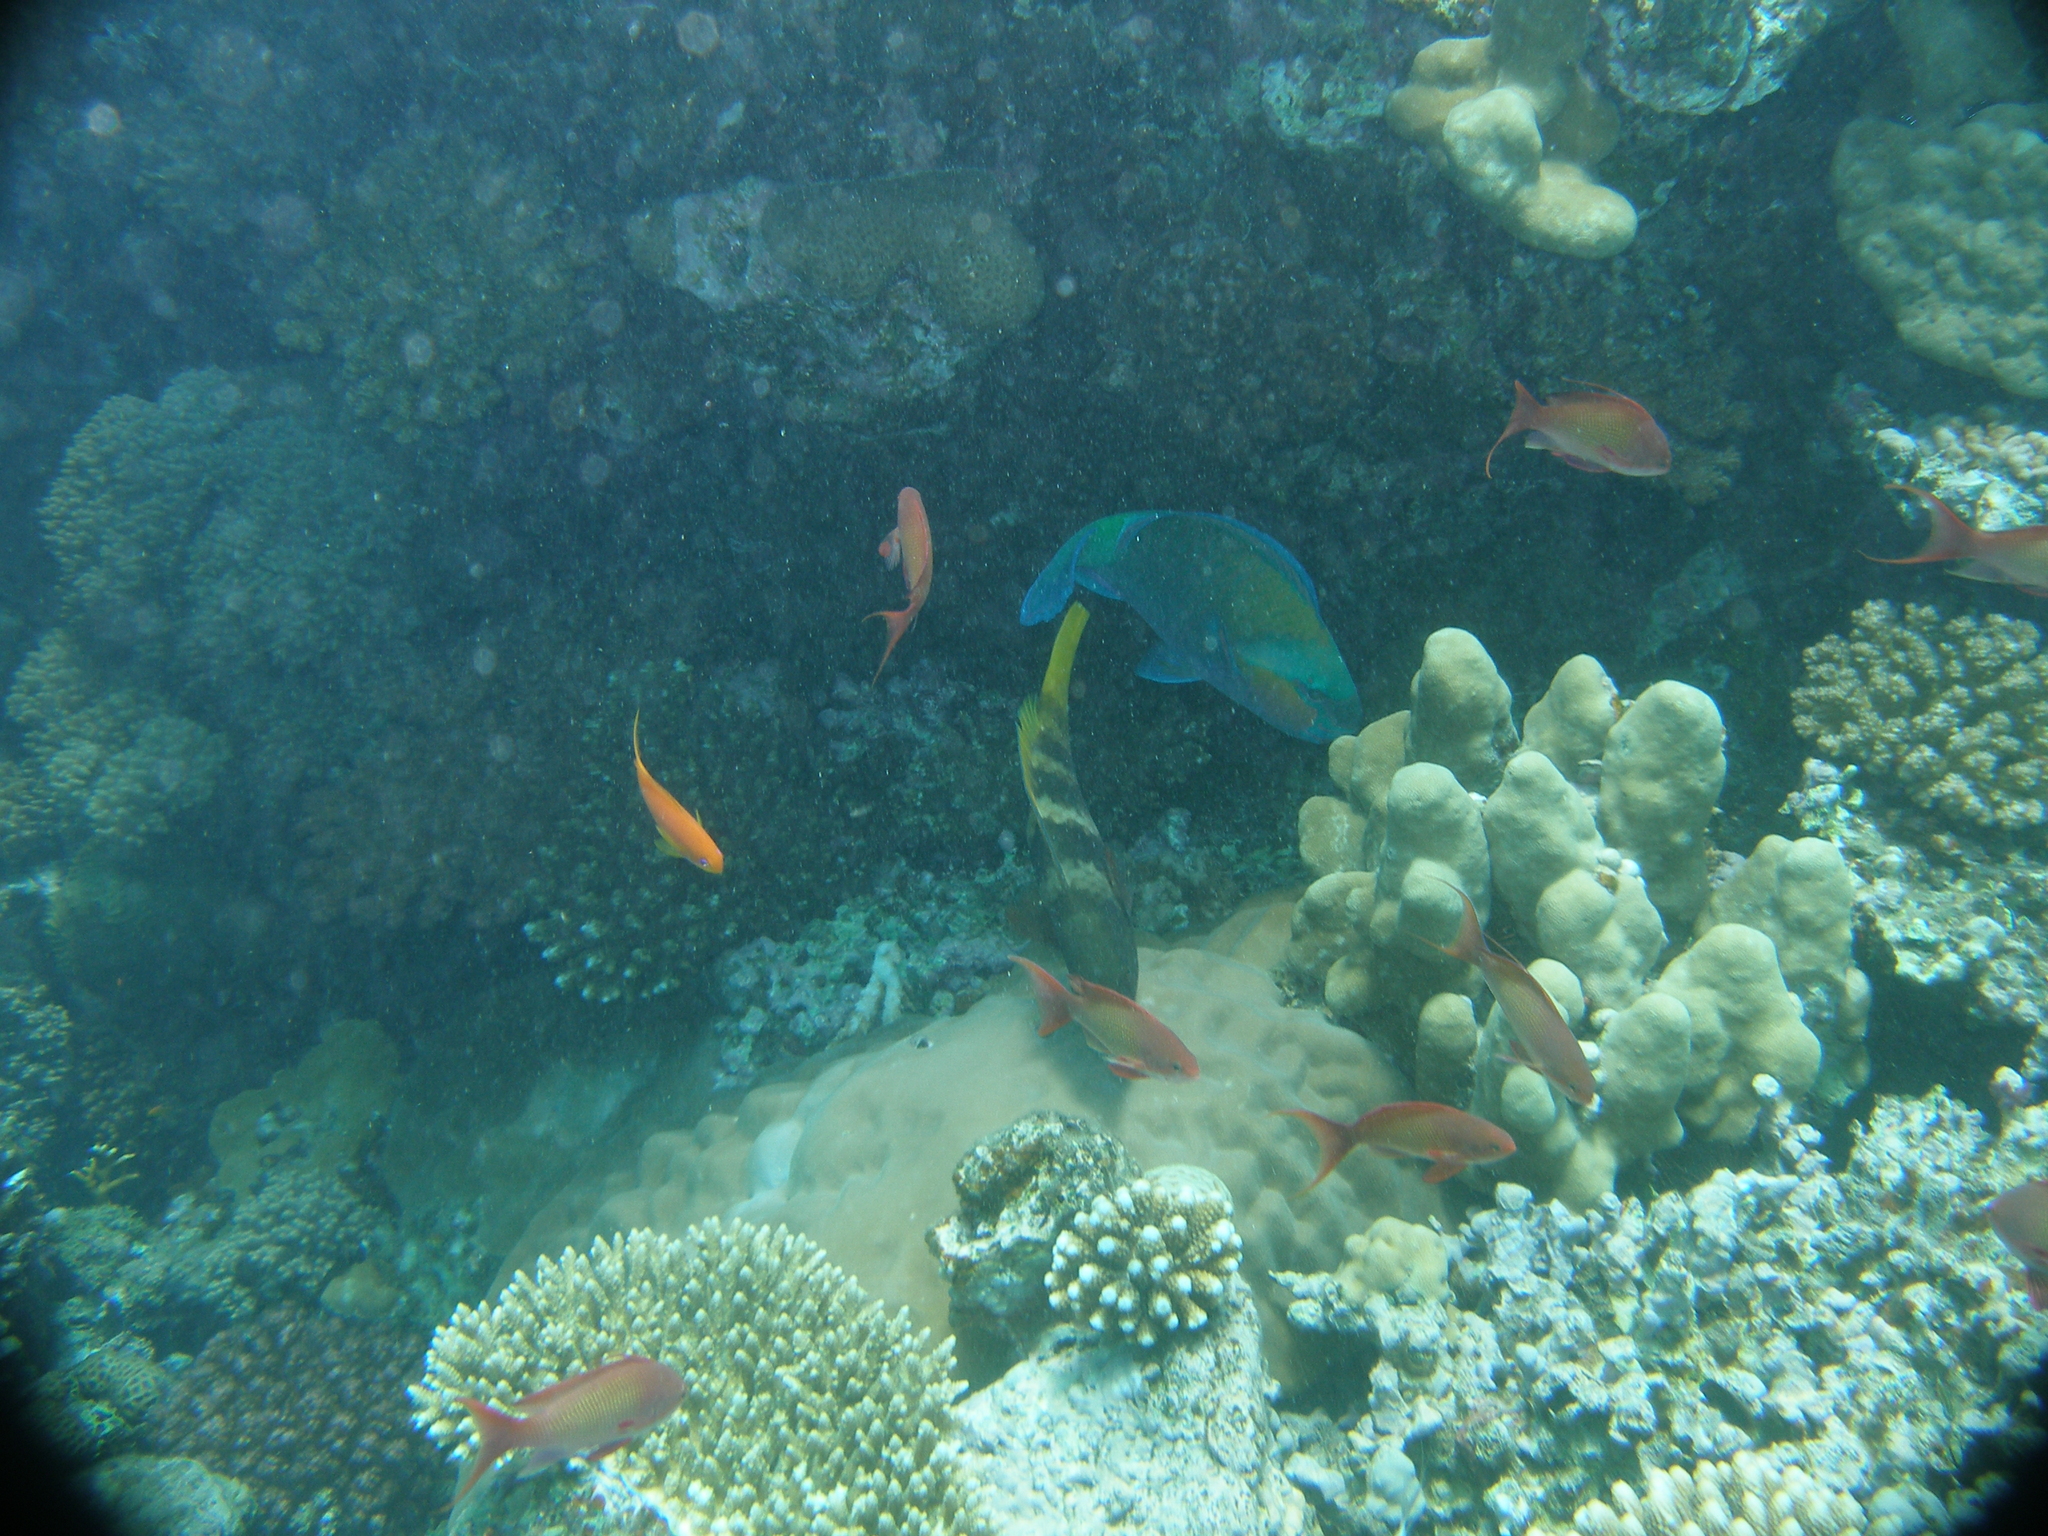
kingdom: Animalia
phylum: Chordata
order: Perciformes
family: Scaridae
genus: Chlorurus
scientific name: Chlorurus sordidus
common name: Bullethead parrotfish
